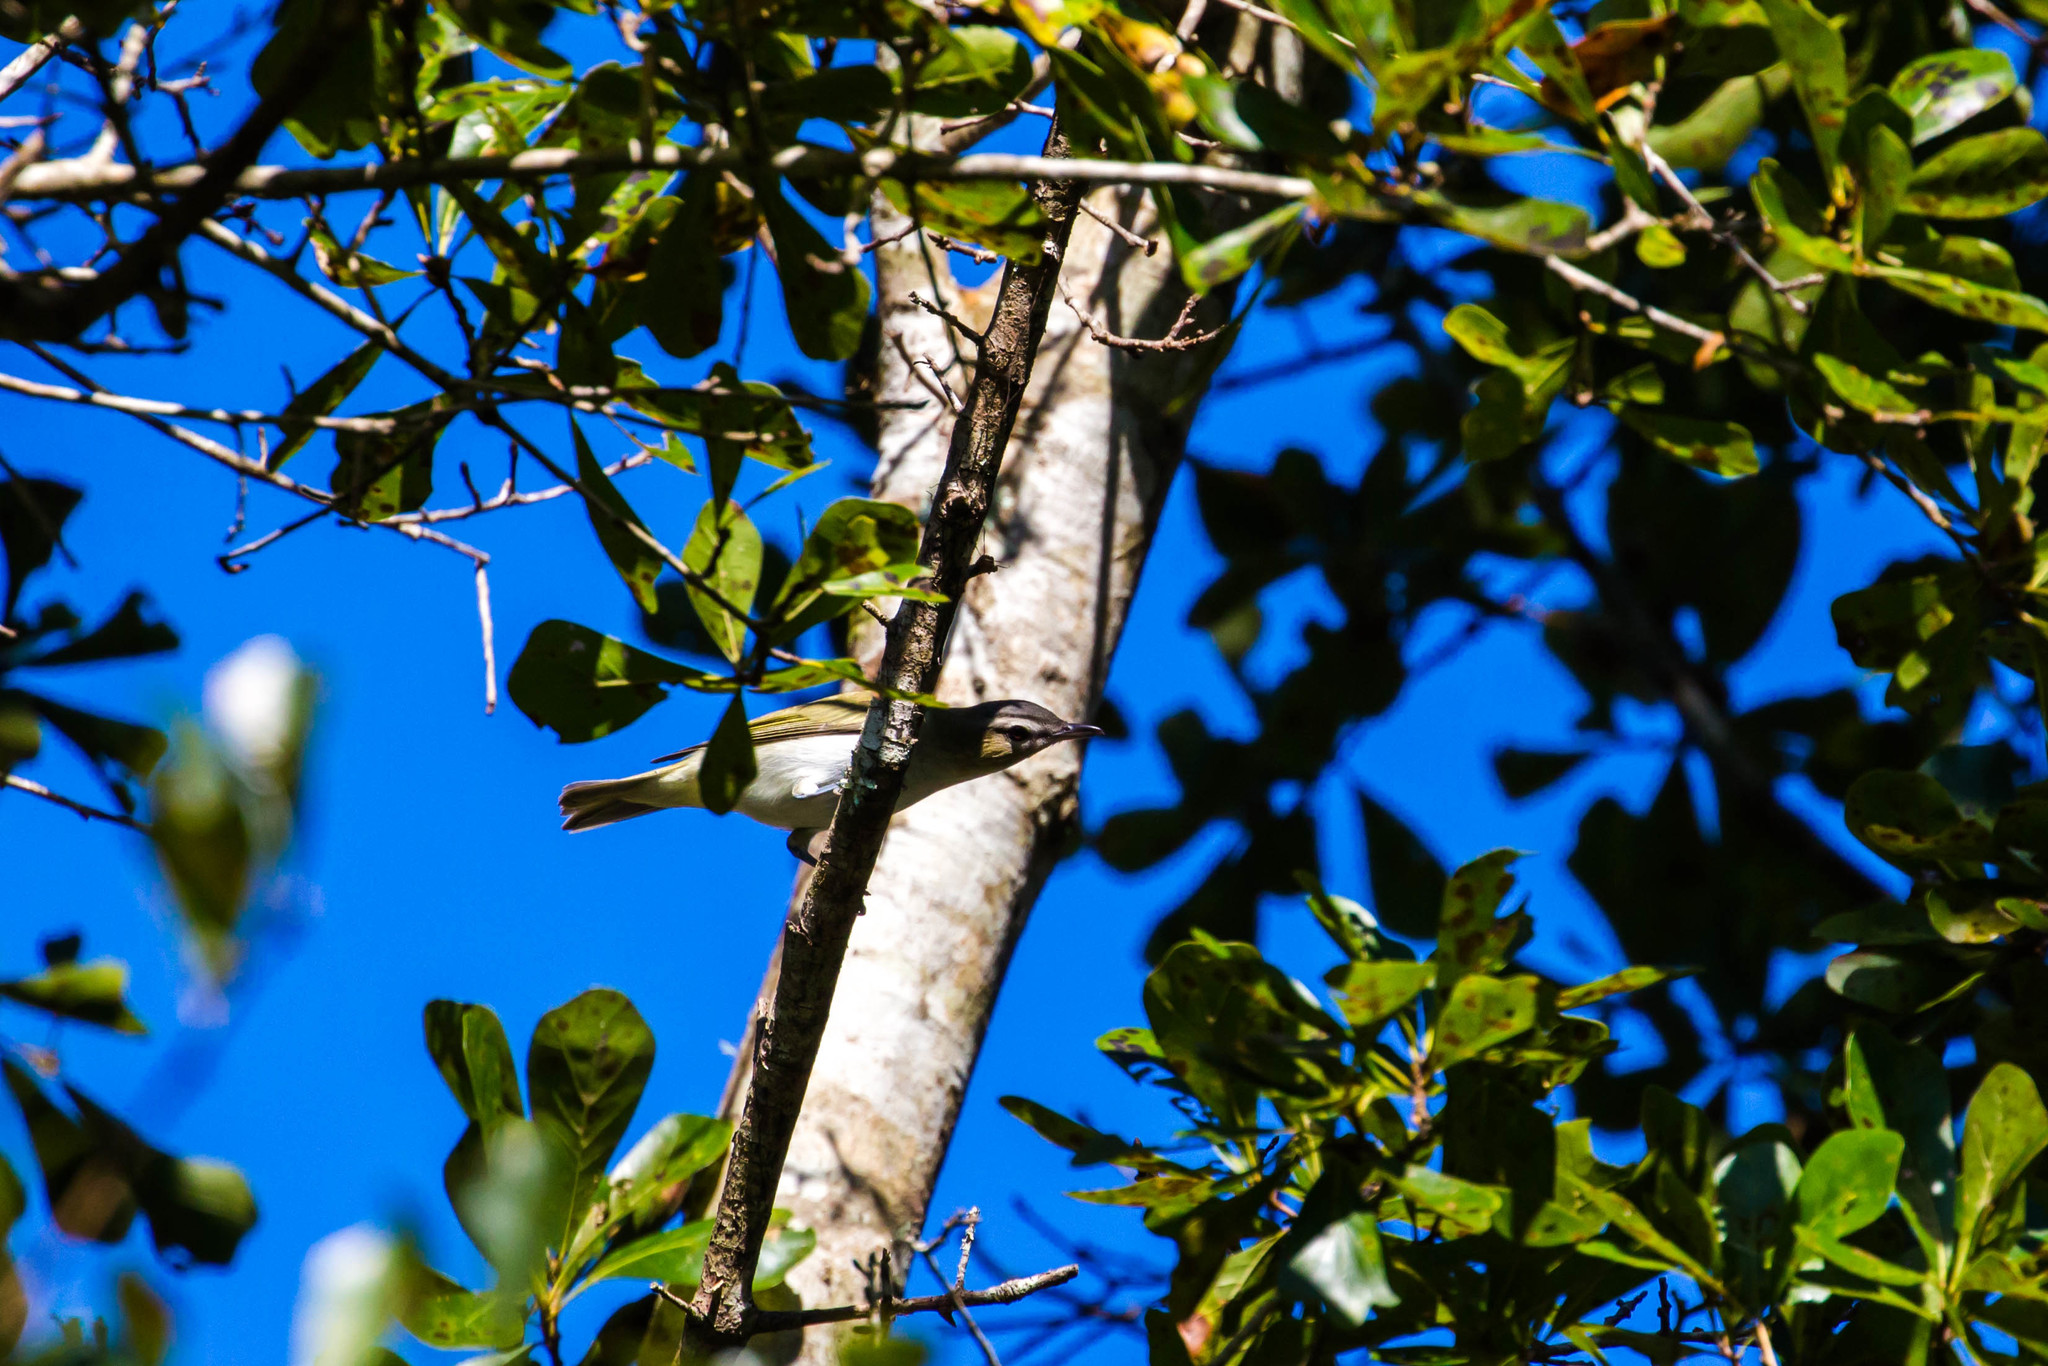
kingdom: Animalia
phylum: Chordata
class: Aves
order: Passeriformes
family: Vireonidae
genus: Vireo
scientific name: Vireo olivaceus
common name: Red-eyed vireo
